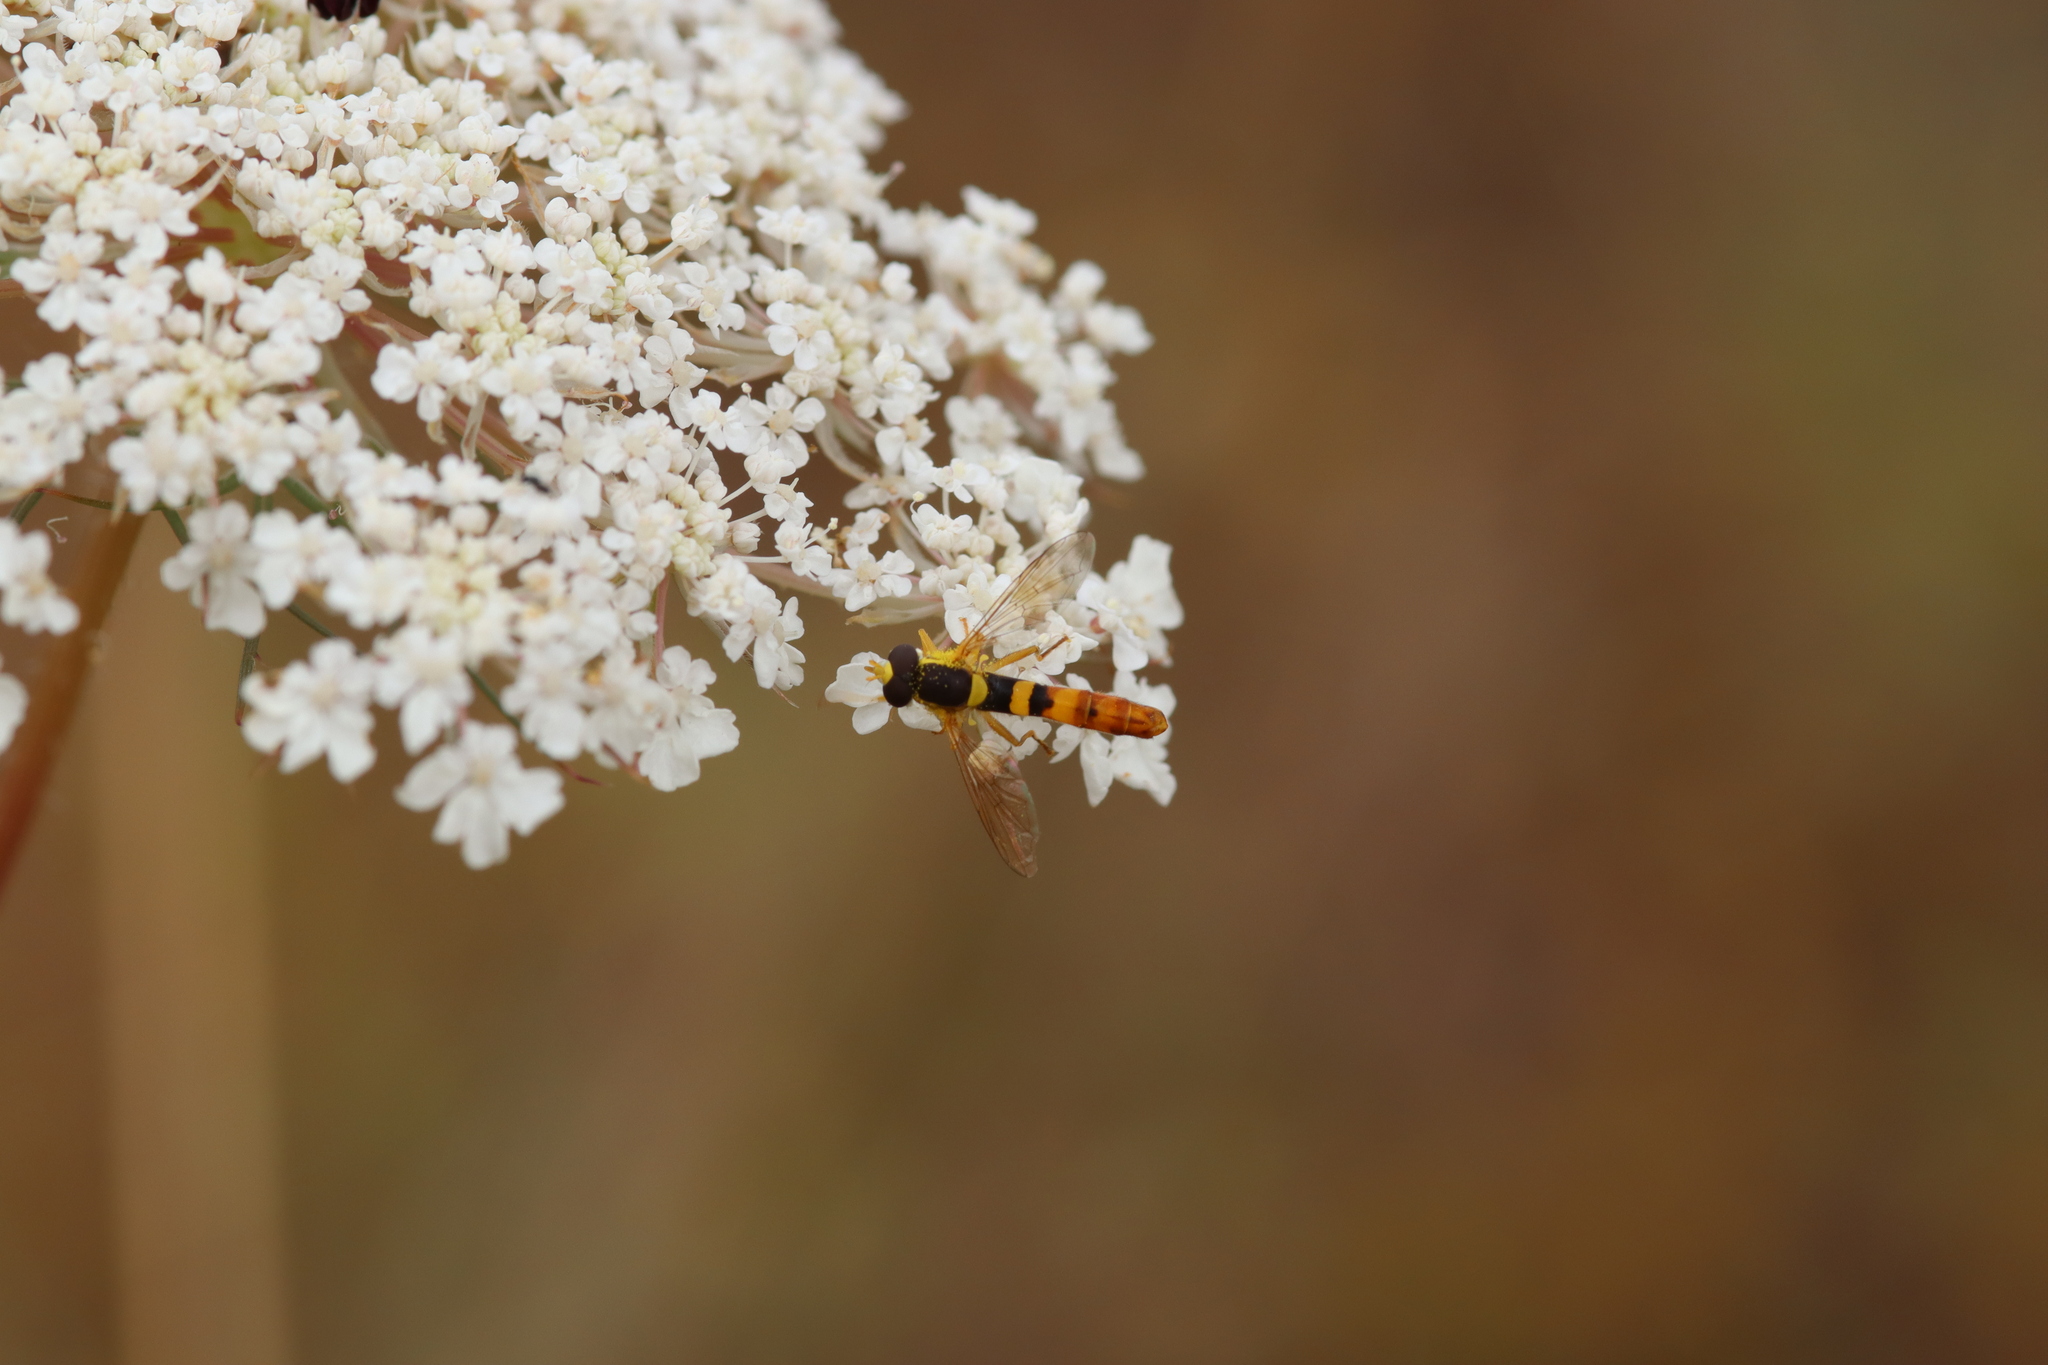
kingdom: Animalia
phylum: Arthropoda
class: Insecta
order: Diptera
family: Syrphidae
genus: Sphaerophoria
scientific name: Sphaerophoria scripta
